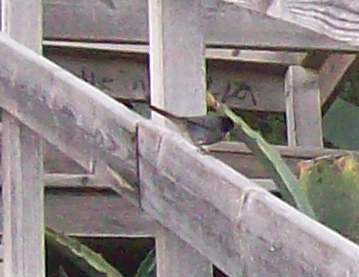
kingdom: Animalia
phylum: Chordata
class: Aves
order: Passeriformes
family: Sylviidae
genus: Curruca
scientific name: Curruca melanocephala
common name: Sardinian warbler
